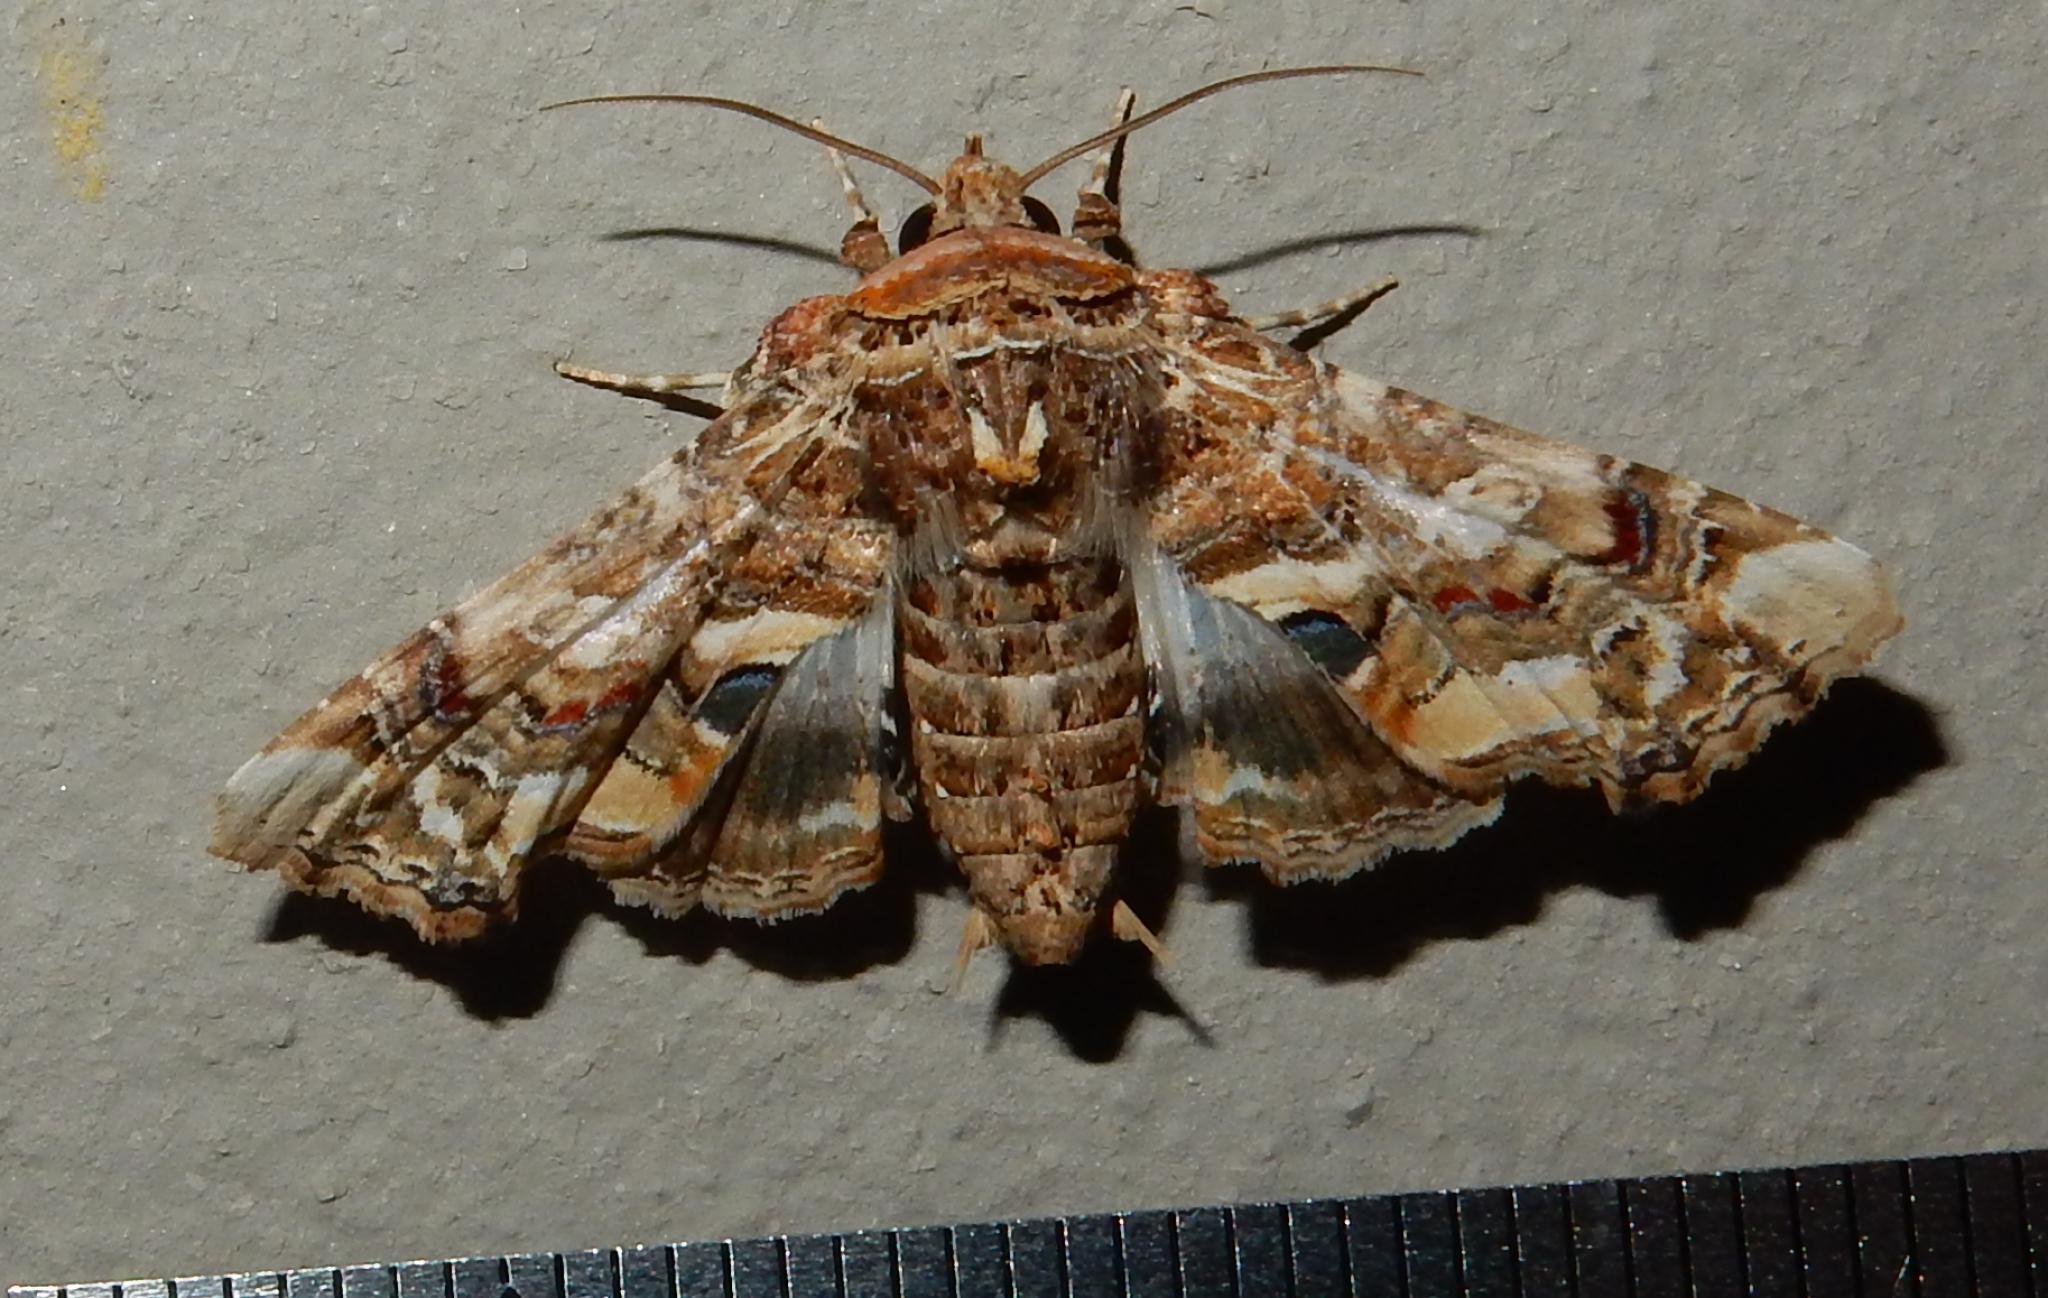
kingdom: Animalia
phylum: Arthropoda
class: Insecta
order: Lepidoptera
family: Euteliidae
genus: Eutelia
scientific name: Eutelia adulatrix
